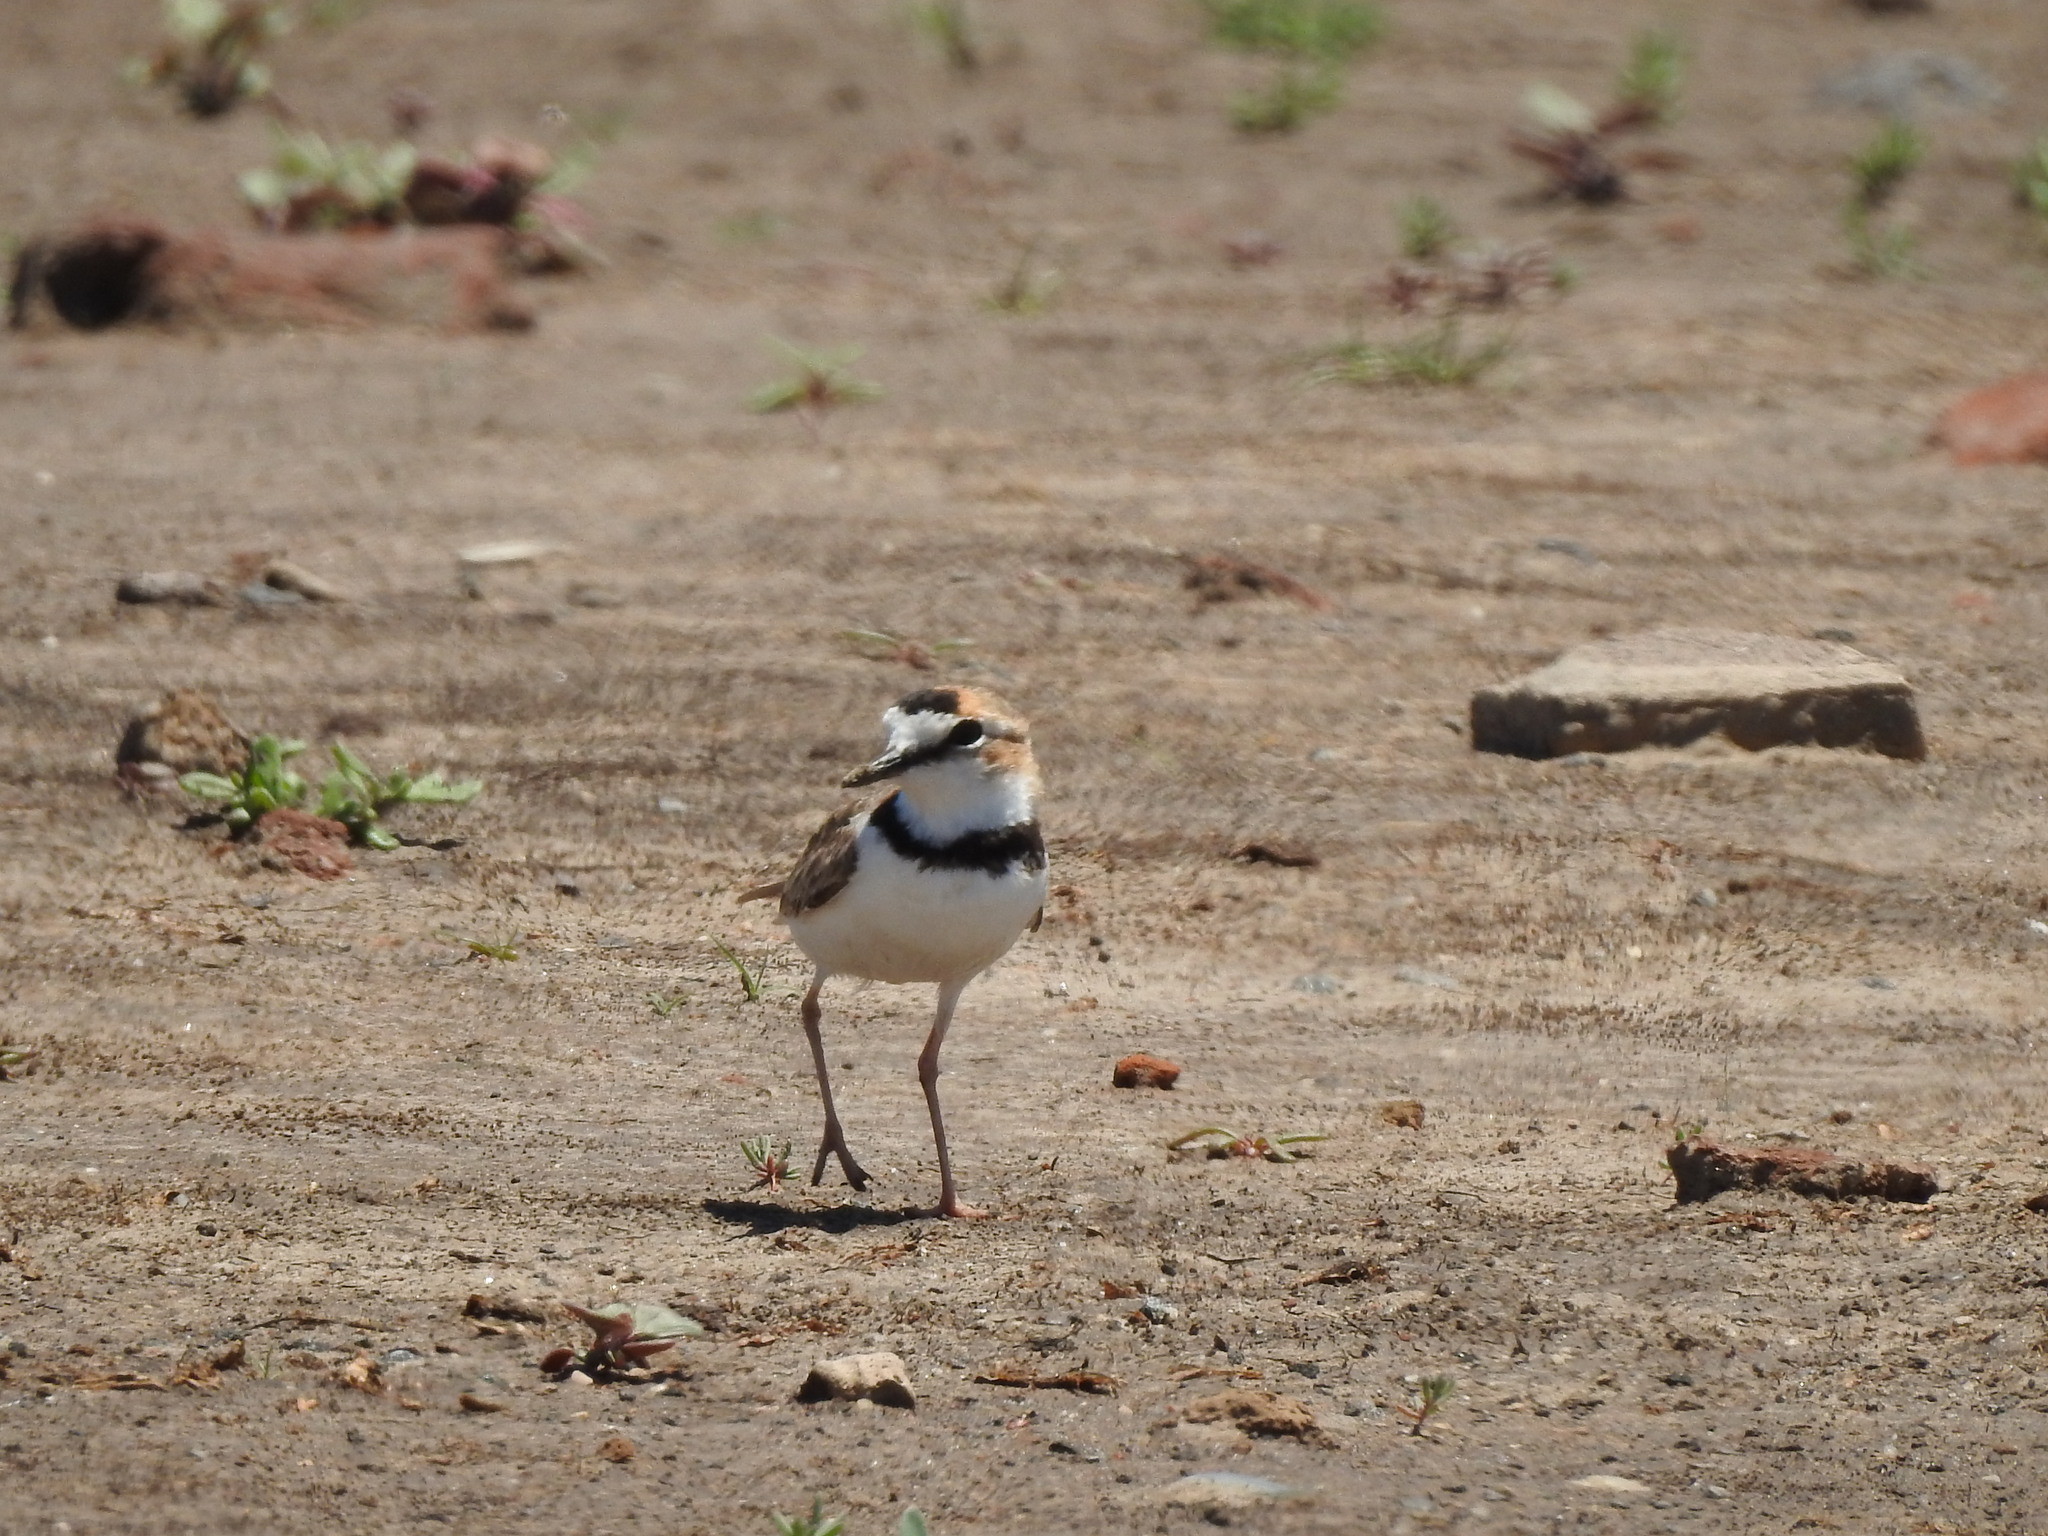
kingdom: Animalia
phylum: Chordata
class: Aves
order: Charadriiformes
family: Charadriidae
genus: Anarhynchus
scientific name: Anarhynchus
